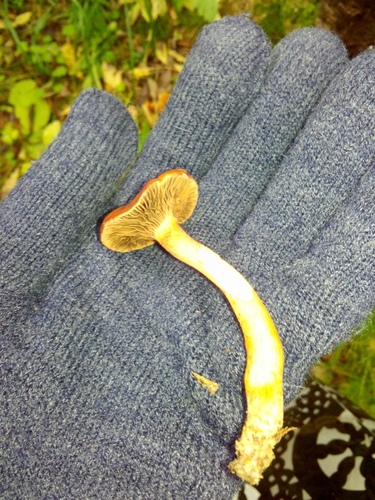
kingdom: Fungi
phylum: Basidiomycota
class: Agaricomycetes
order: Agaricales
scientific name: Agaricales
